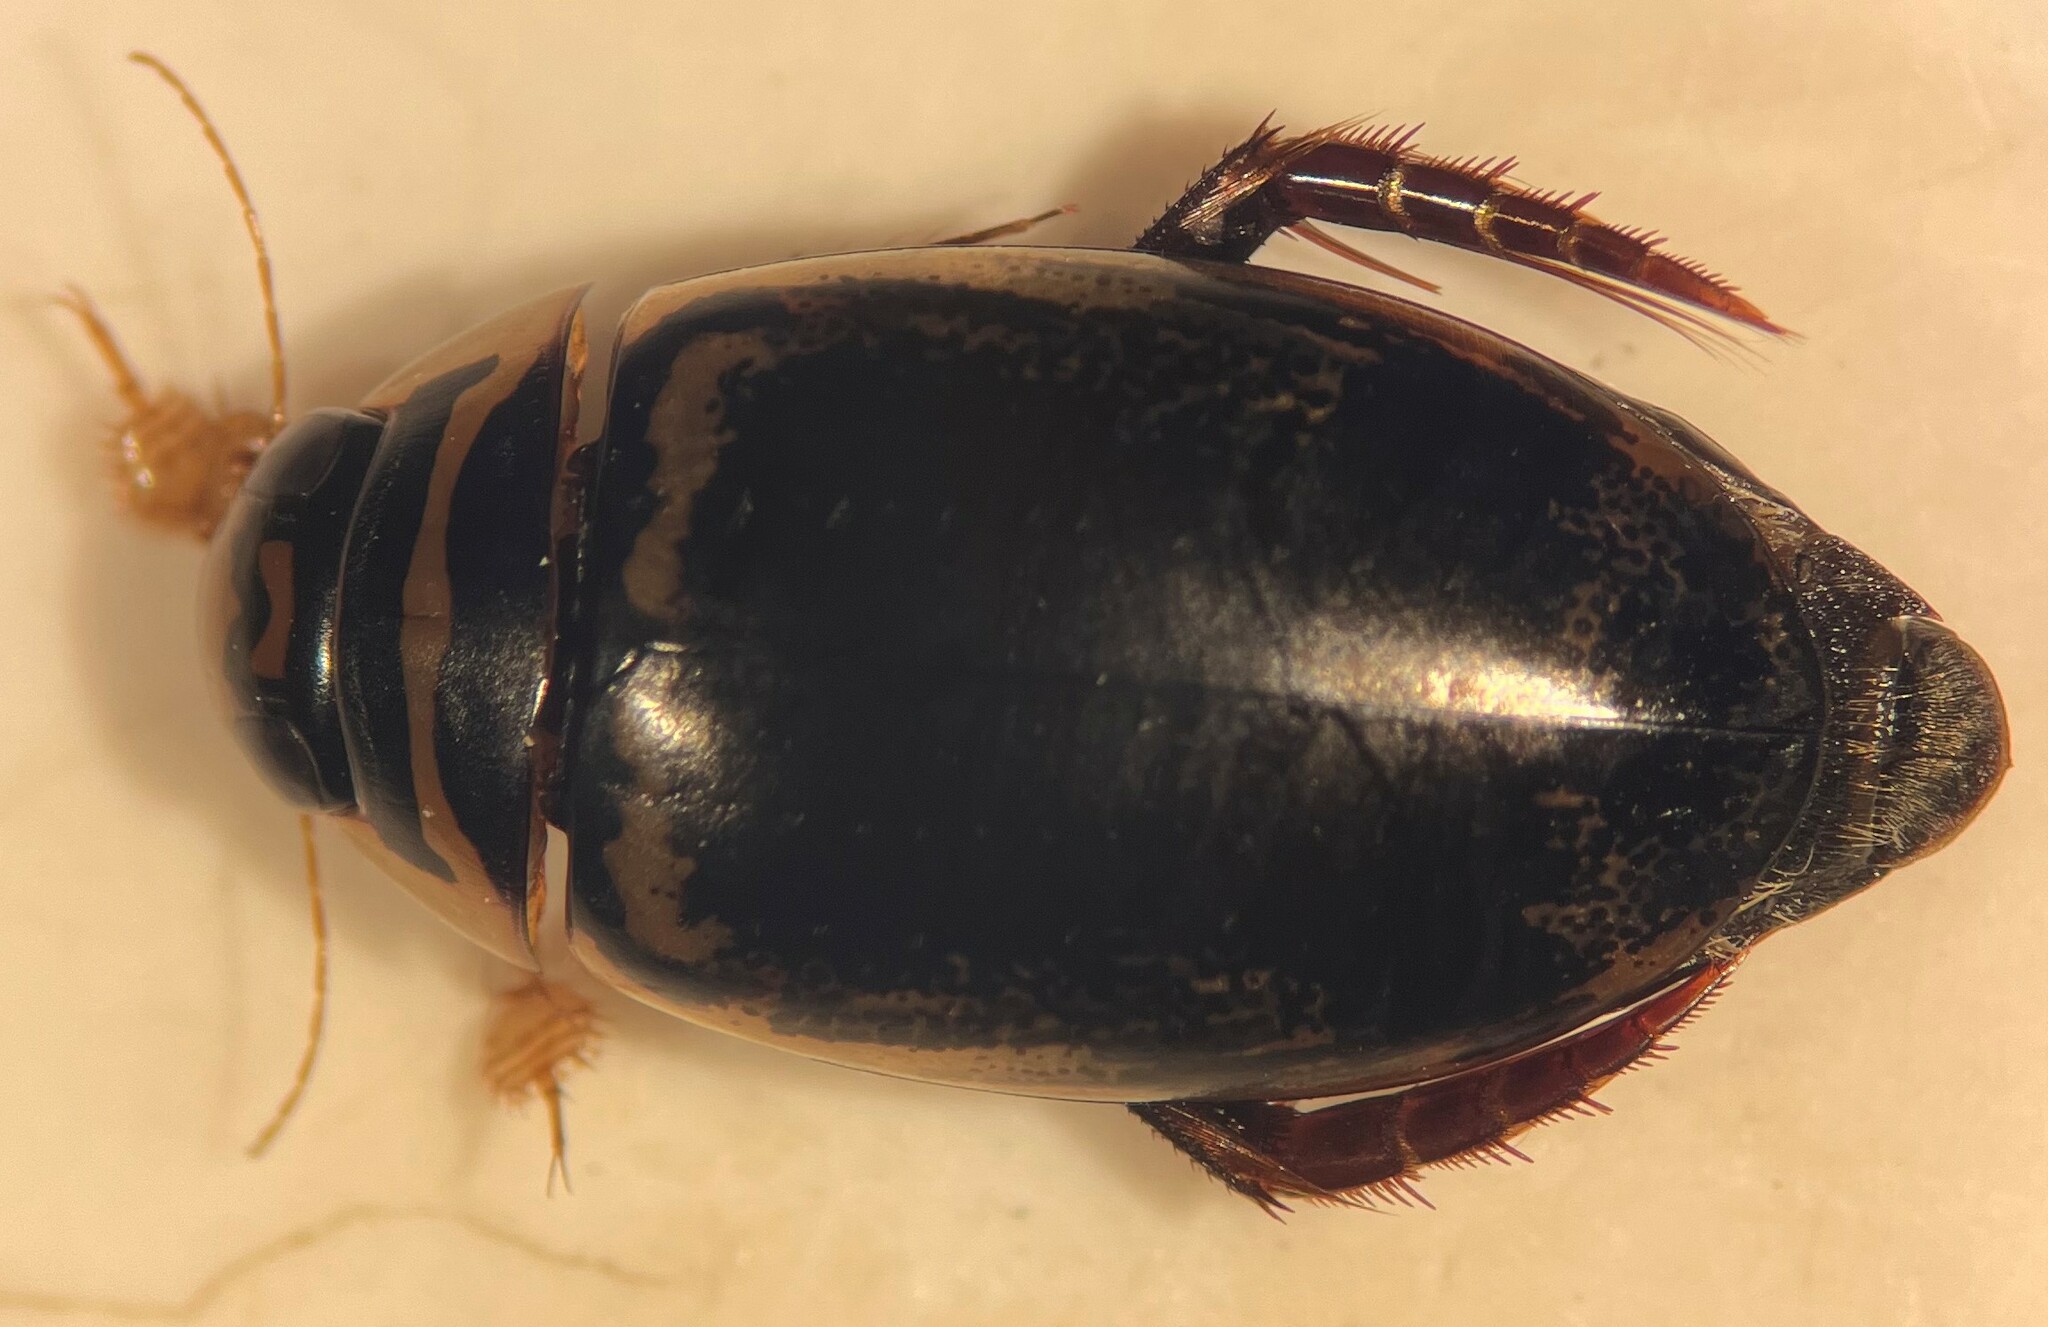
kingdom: Animalia
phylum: Arthropoda
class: Insecta
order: Coleoptera
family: Dytiscidae
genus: Thermonectus
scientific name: Thermonectus basillaris
